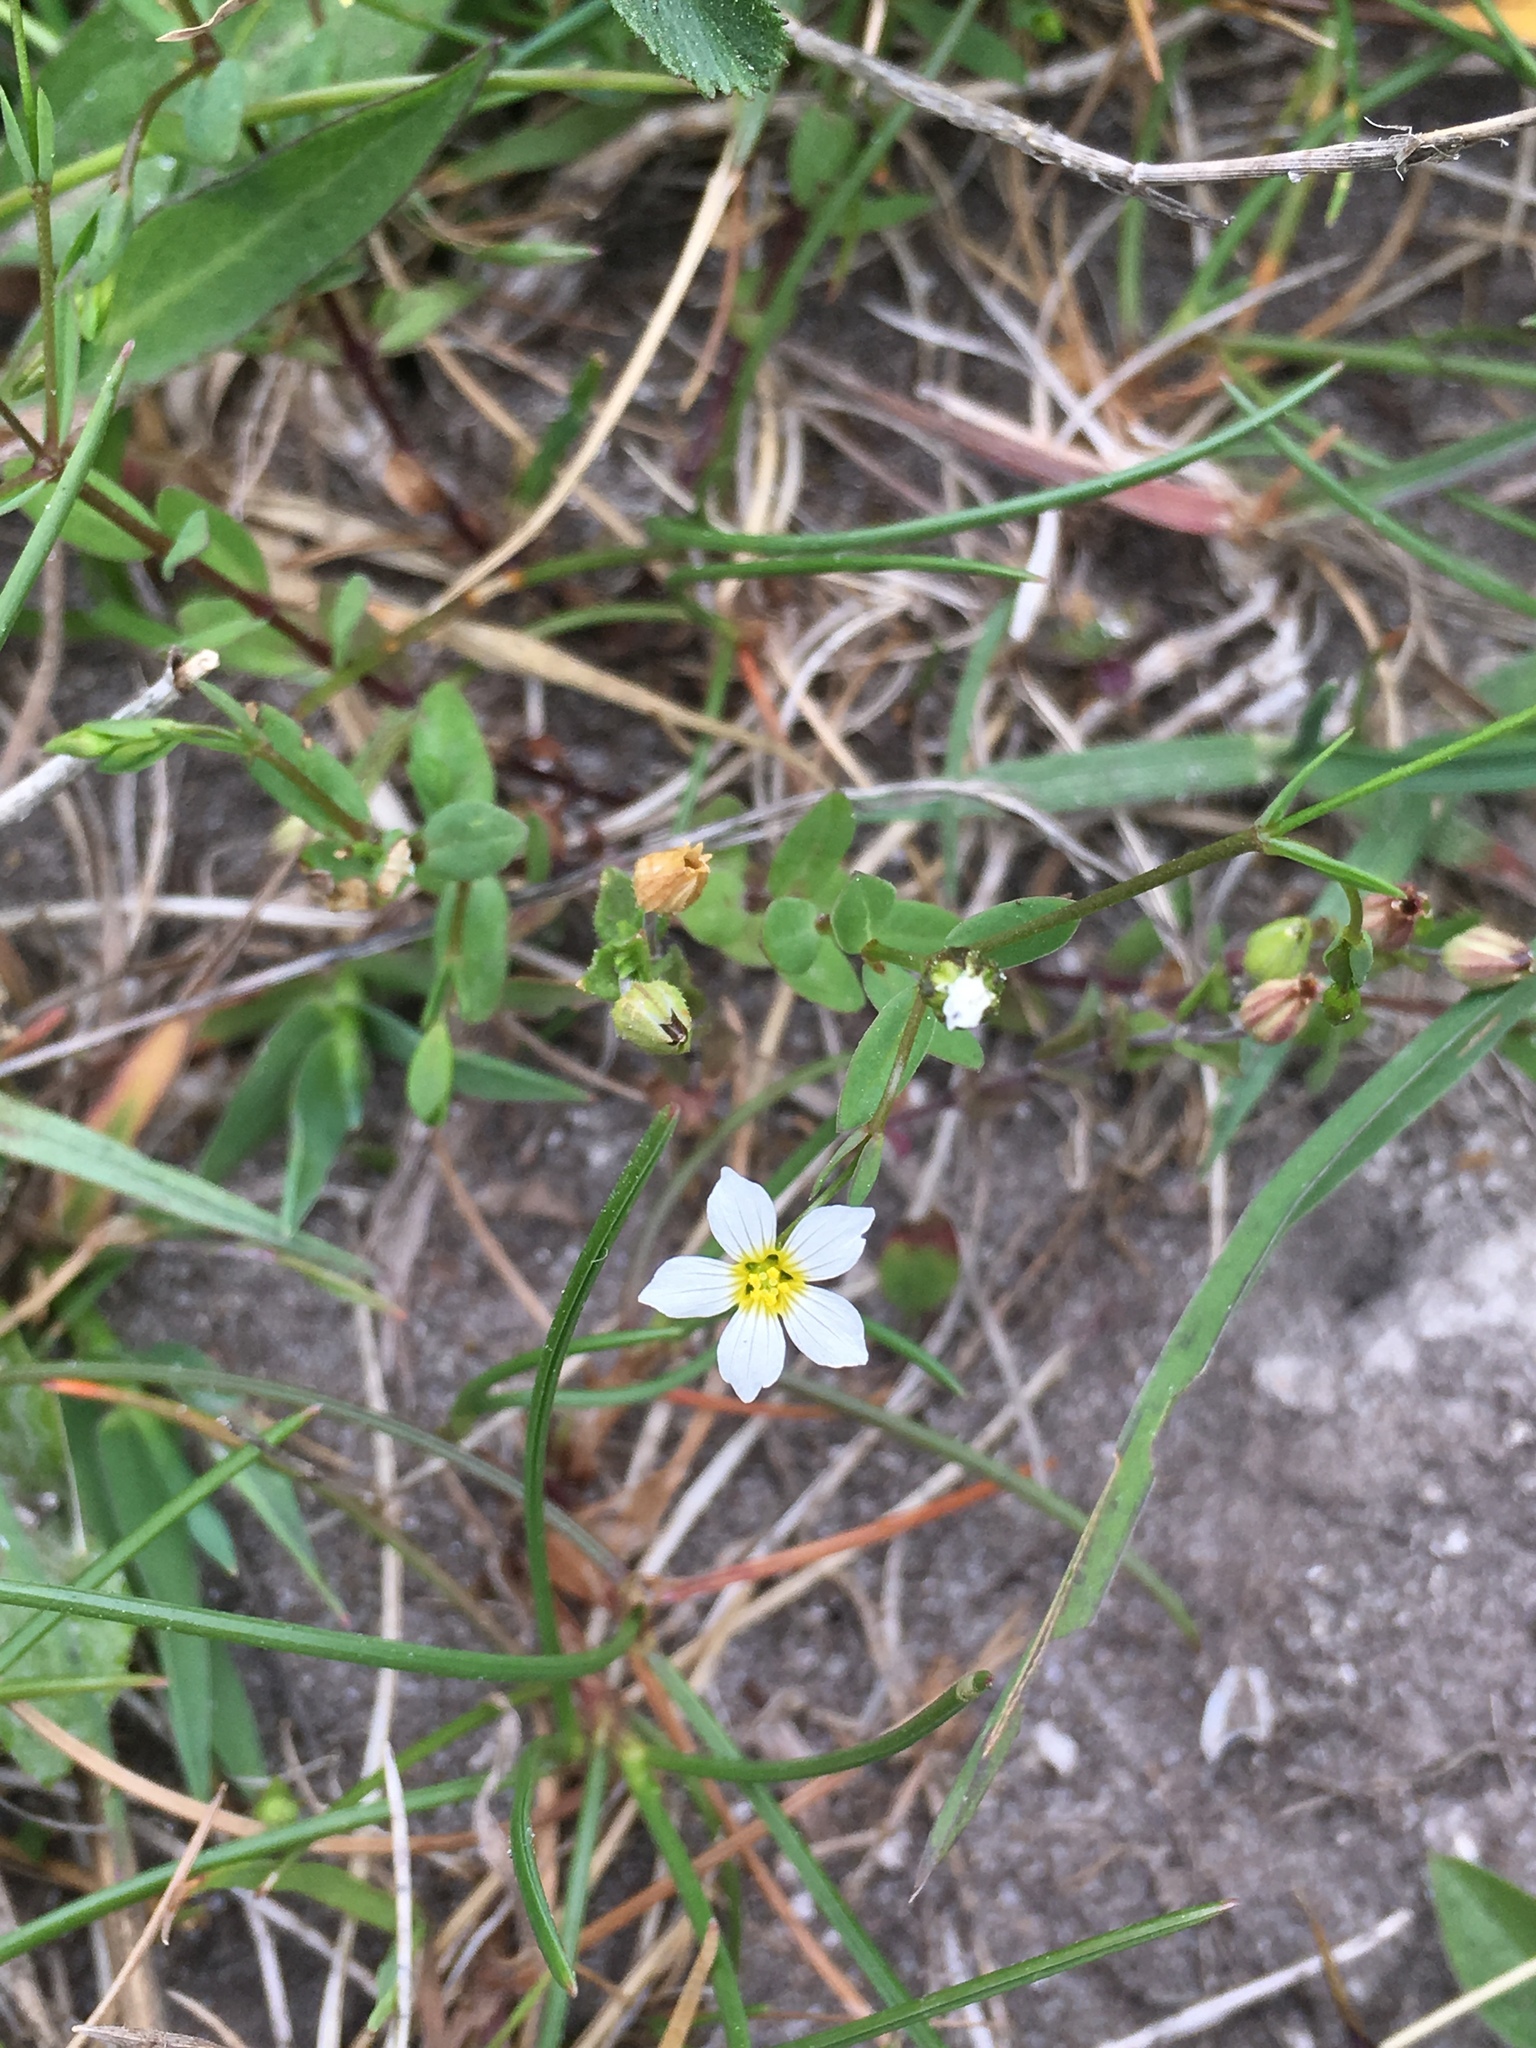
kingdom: Plantae
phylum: Tracheophyta
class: Magnoliopsida
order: Malpighiales
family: Linaceae
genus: Linum
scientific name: Linum catharticum
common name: Fairy flax
